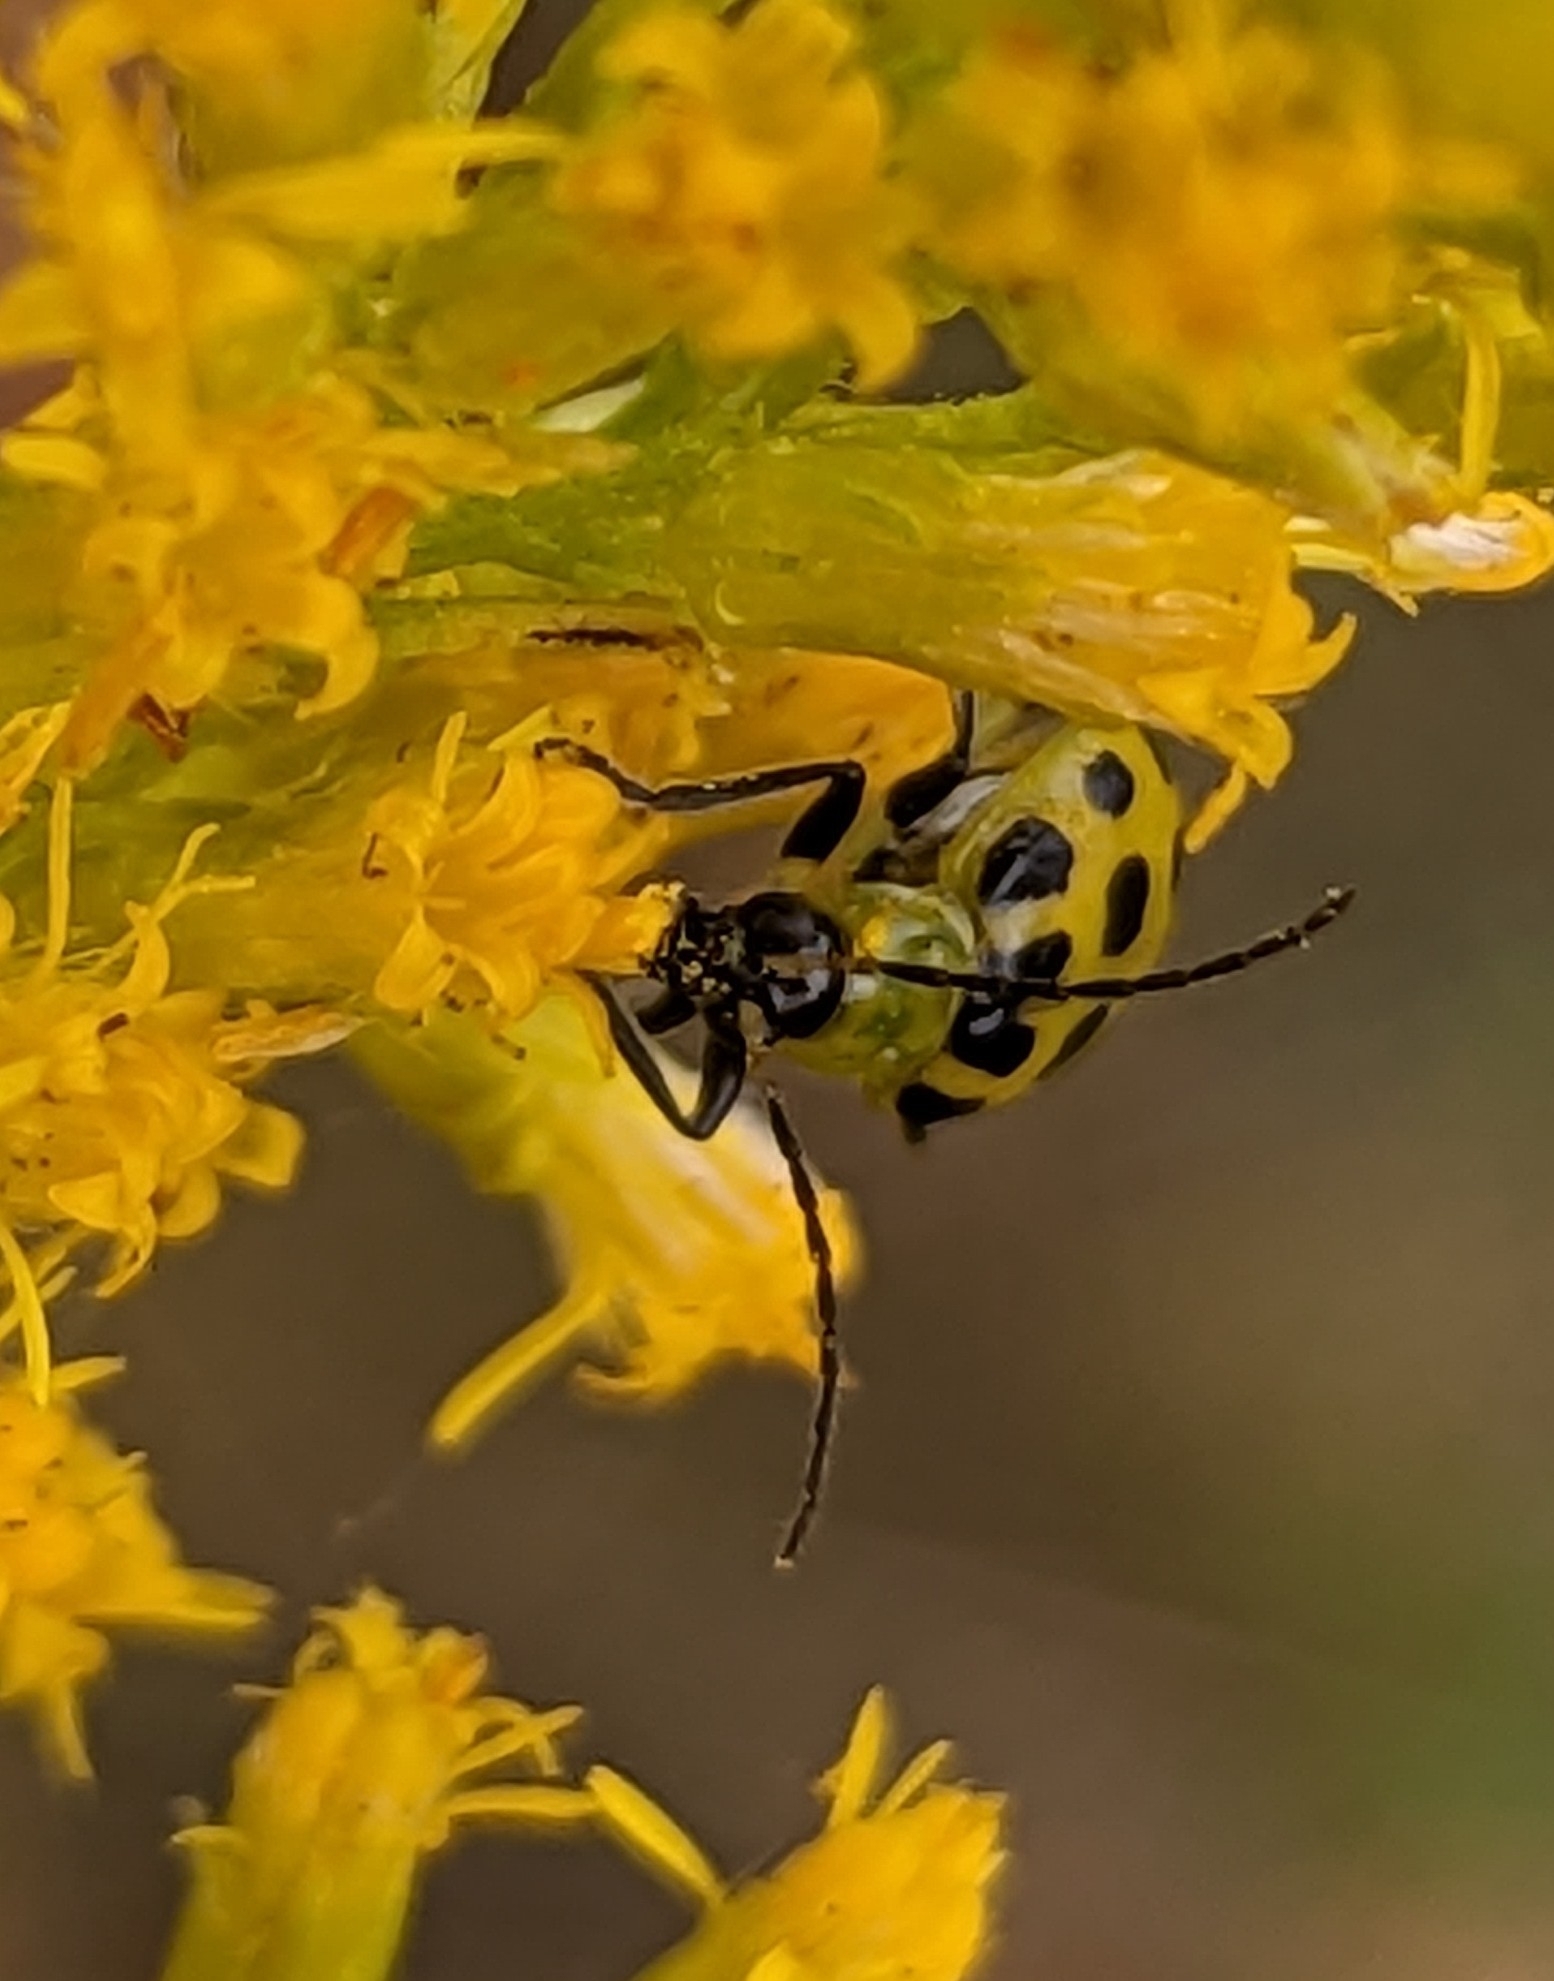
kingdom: Animalia
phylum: Arthropoda
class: Insecta
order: Coleoptera
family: Chrysomelidae
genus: Diabrotica
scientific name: Diabrotica undecimpunctata
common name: Spotted cucumber beetle
